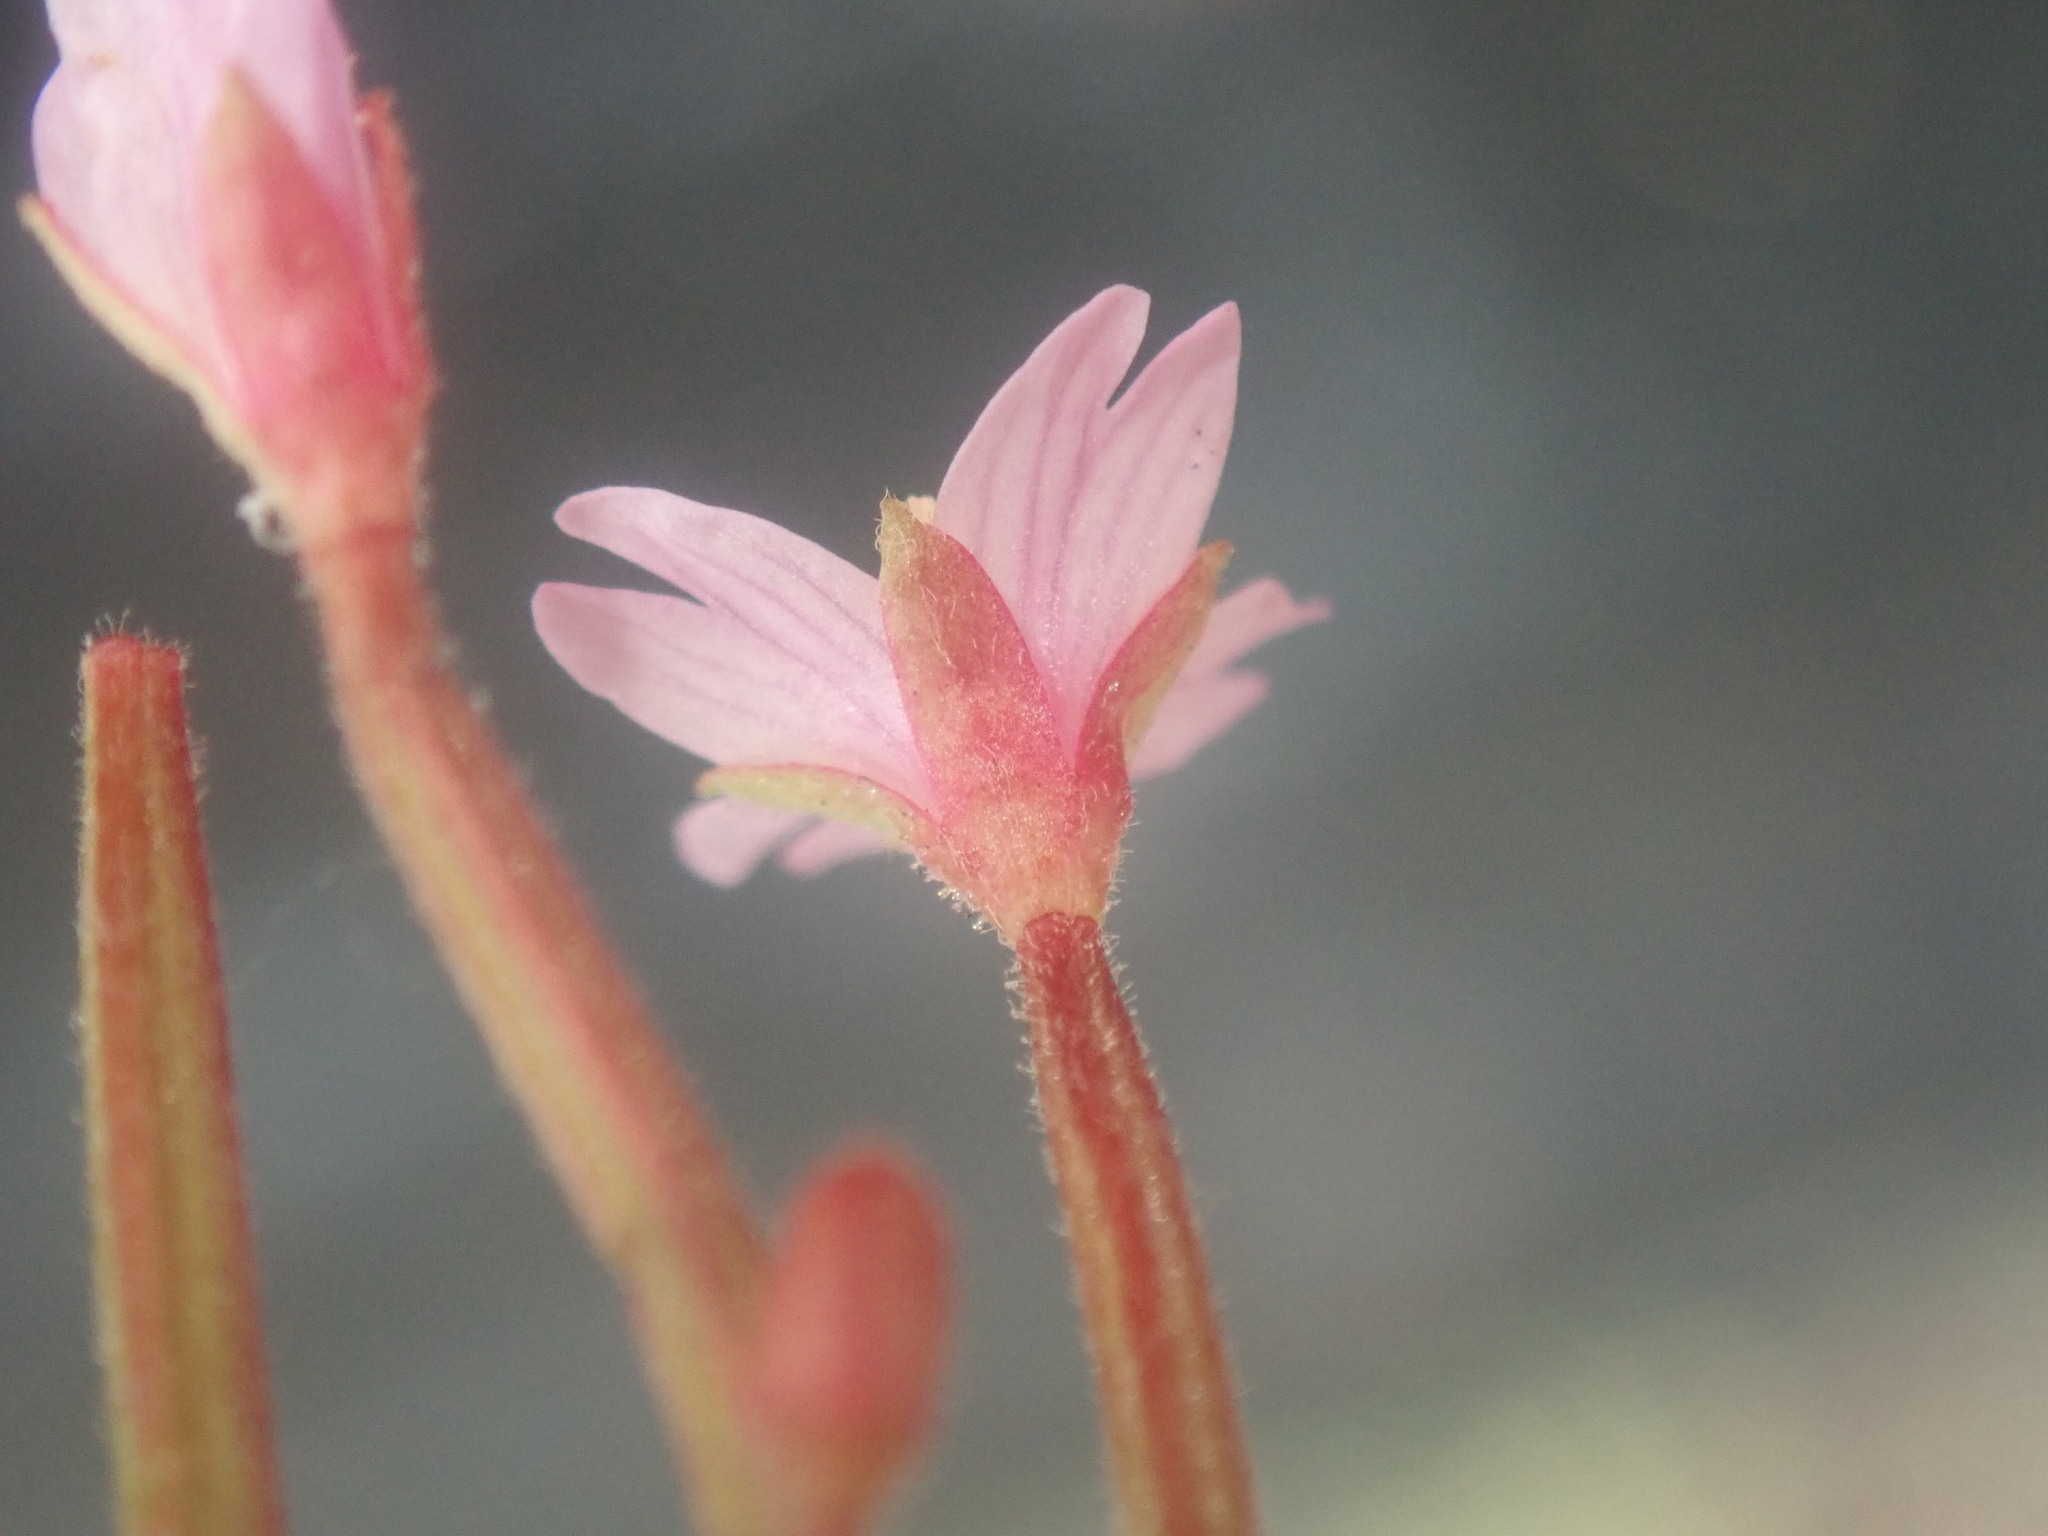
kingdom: Plantae
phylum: Tracheophyta
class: Magnoliopsida
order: Myrtales
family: Onagraceae
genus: Epilobium
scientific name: Epilobium ciliatum
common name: American willowherb
